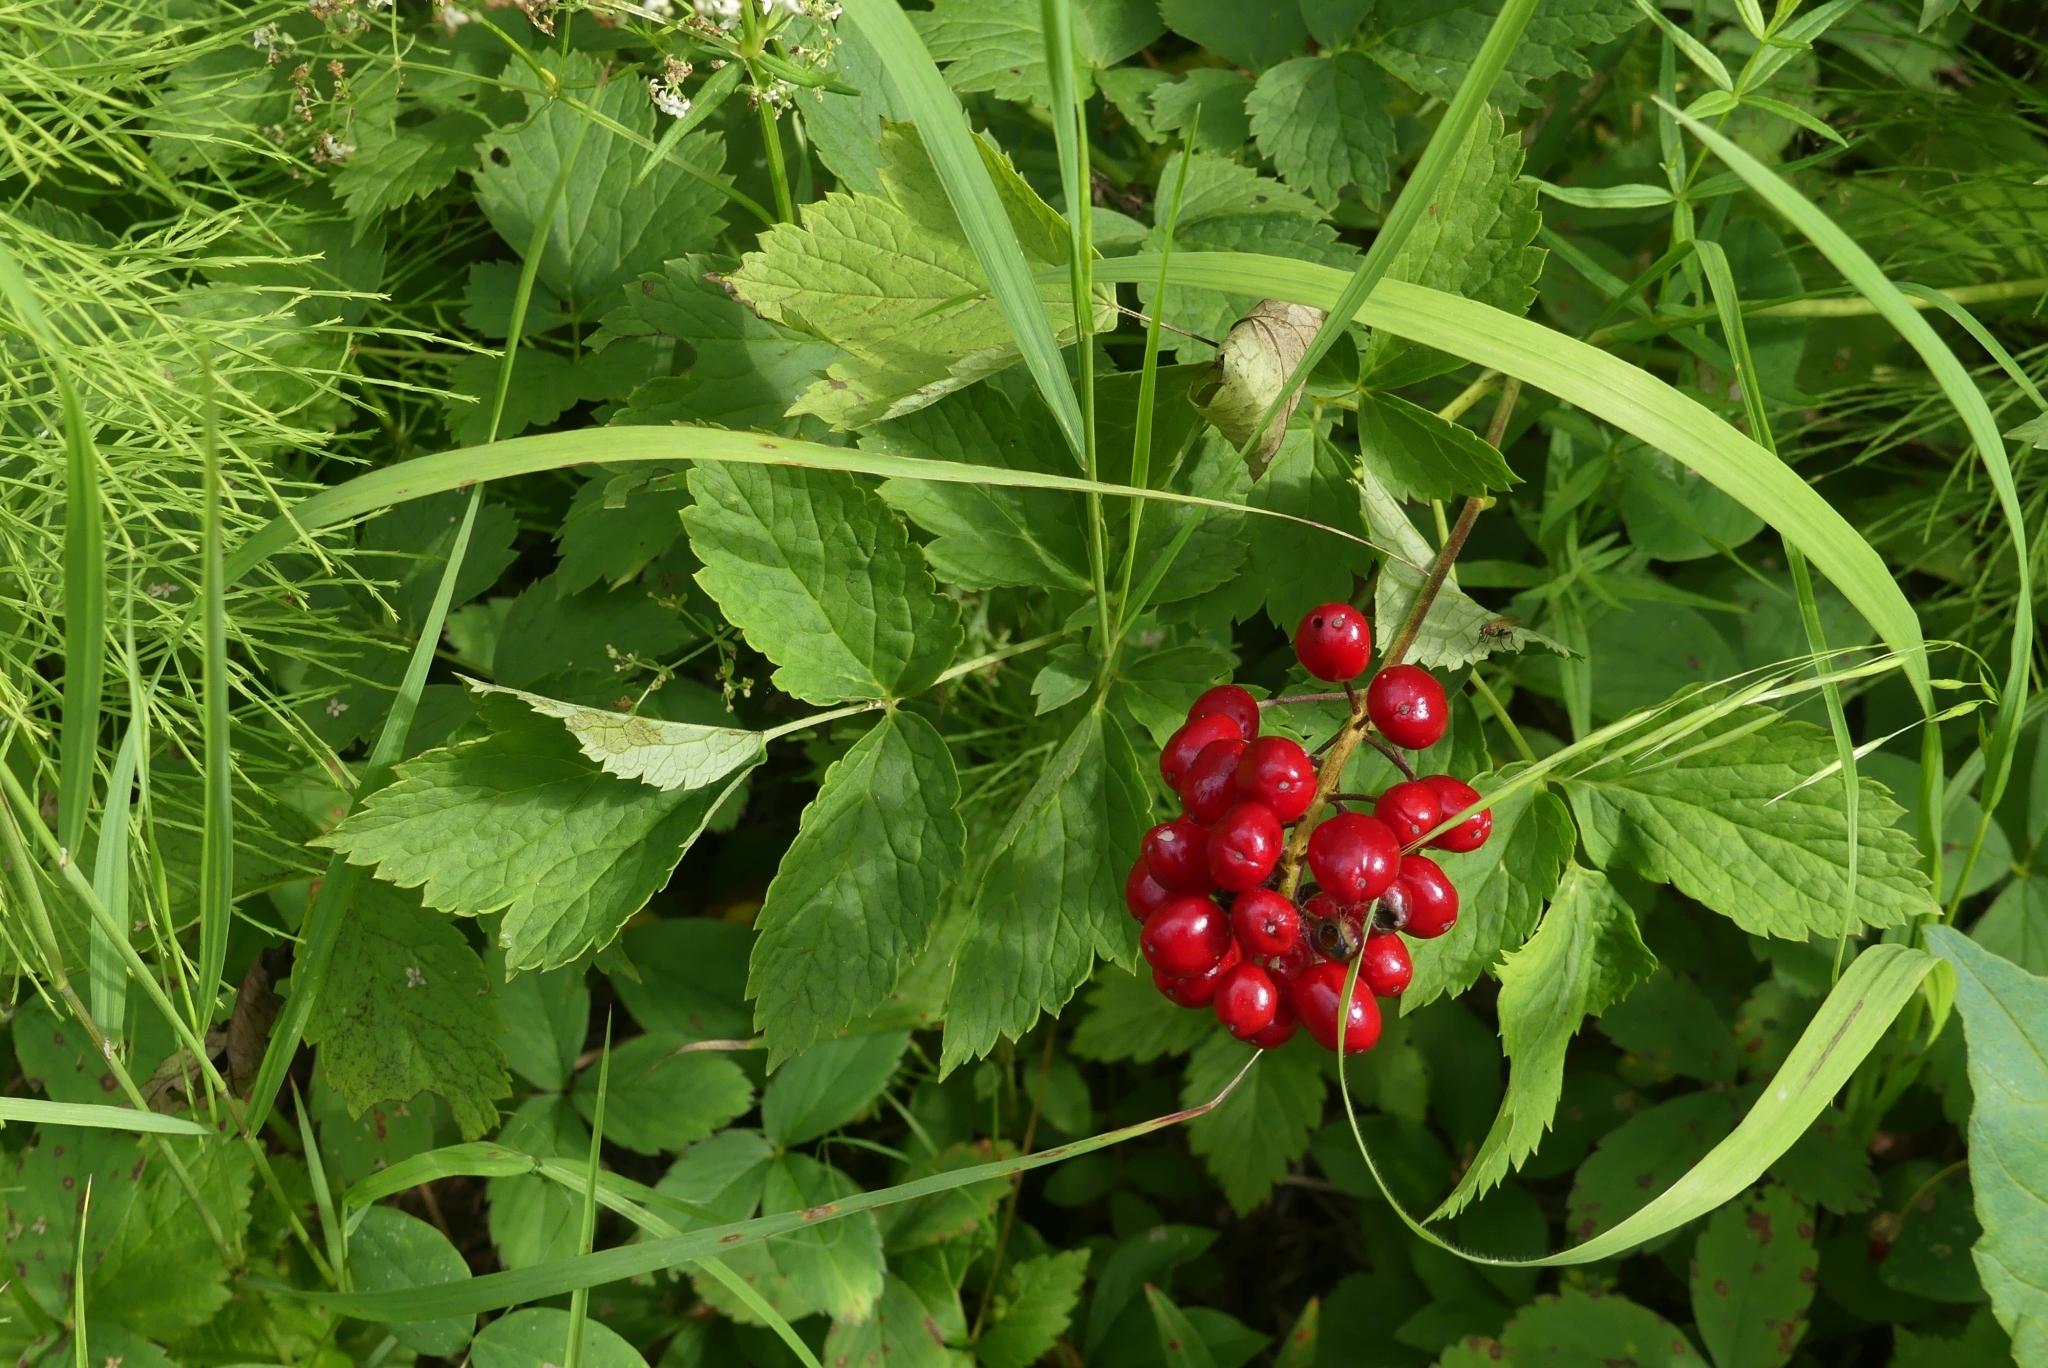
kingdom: Plantae
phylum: Tracheophyta
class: Magnoliopsida
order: Ranunculales
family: Ranunculaceae
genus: Actaea
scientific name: Actaea rubra
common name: Red baneberry
